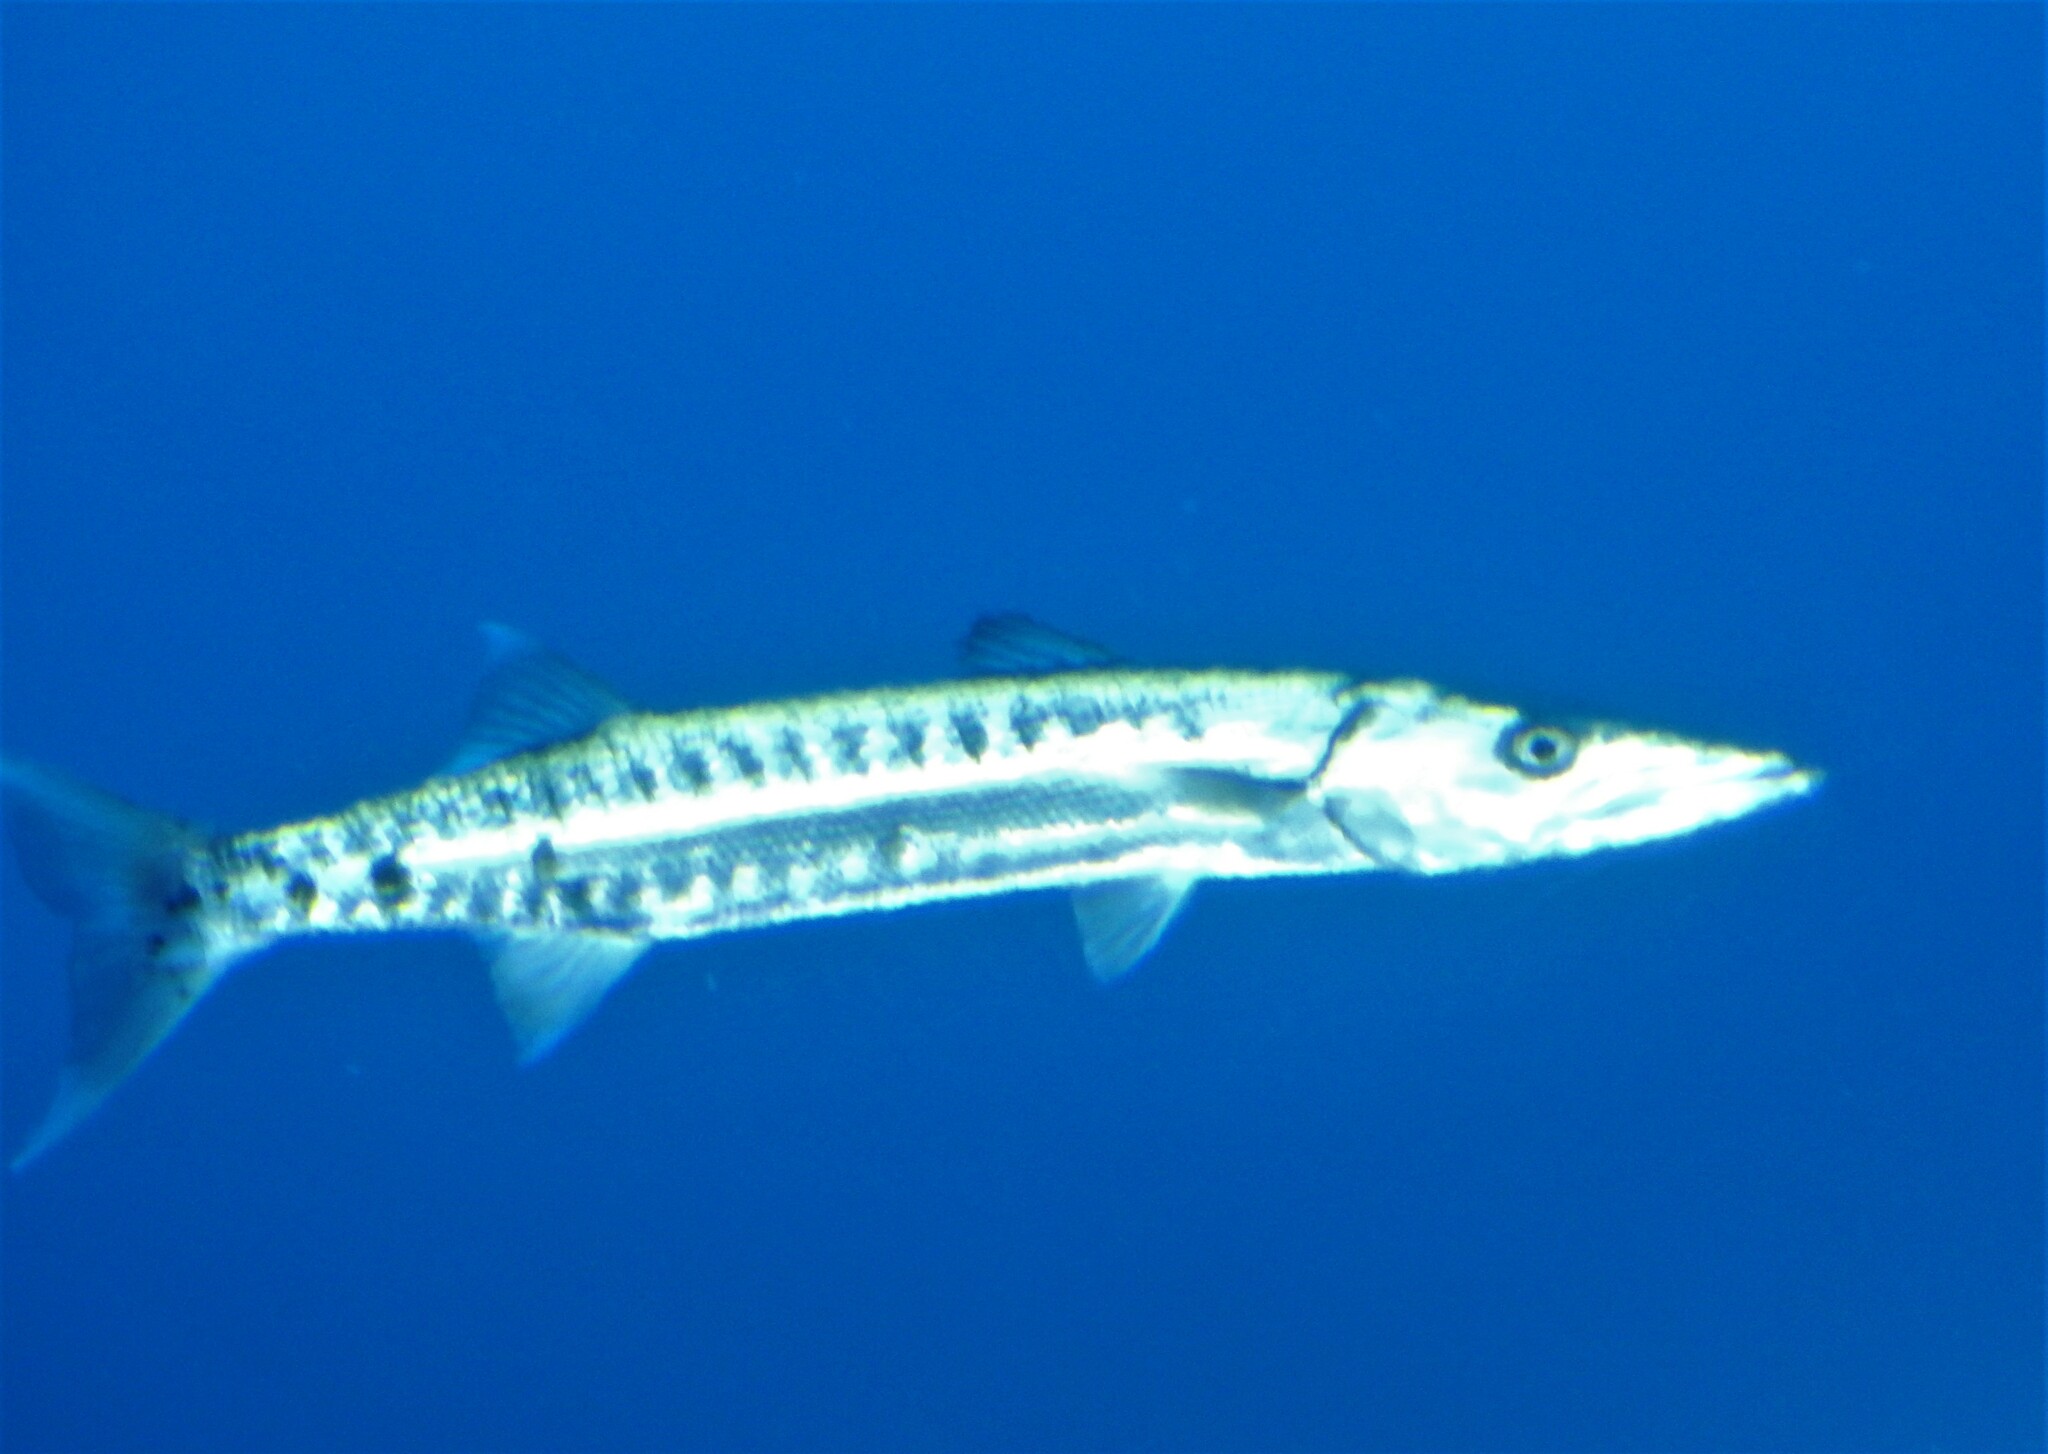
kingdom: Animalia
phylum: Chordata
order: Perciformes
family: Sphyraenidae
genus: Sphyraena
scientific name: Sphyraena barracuda
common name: Great barracuda
